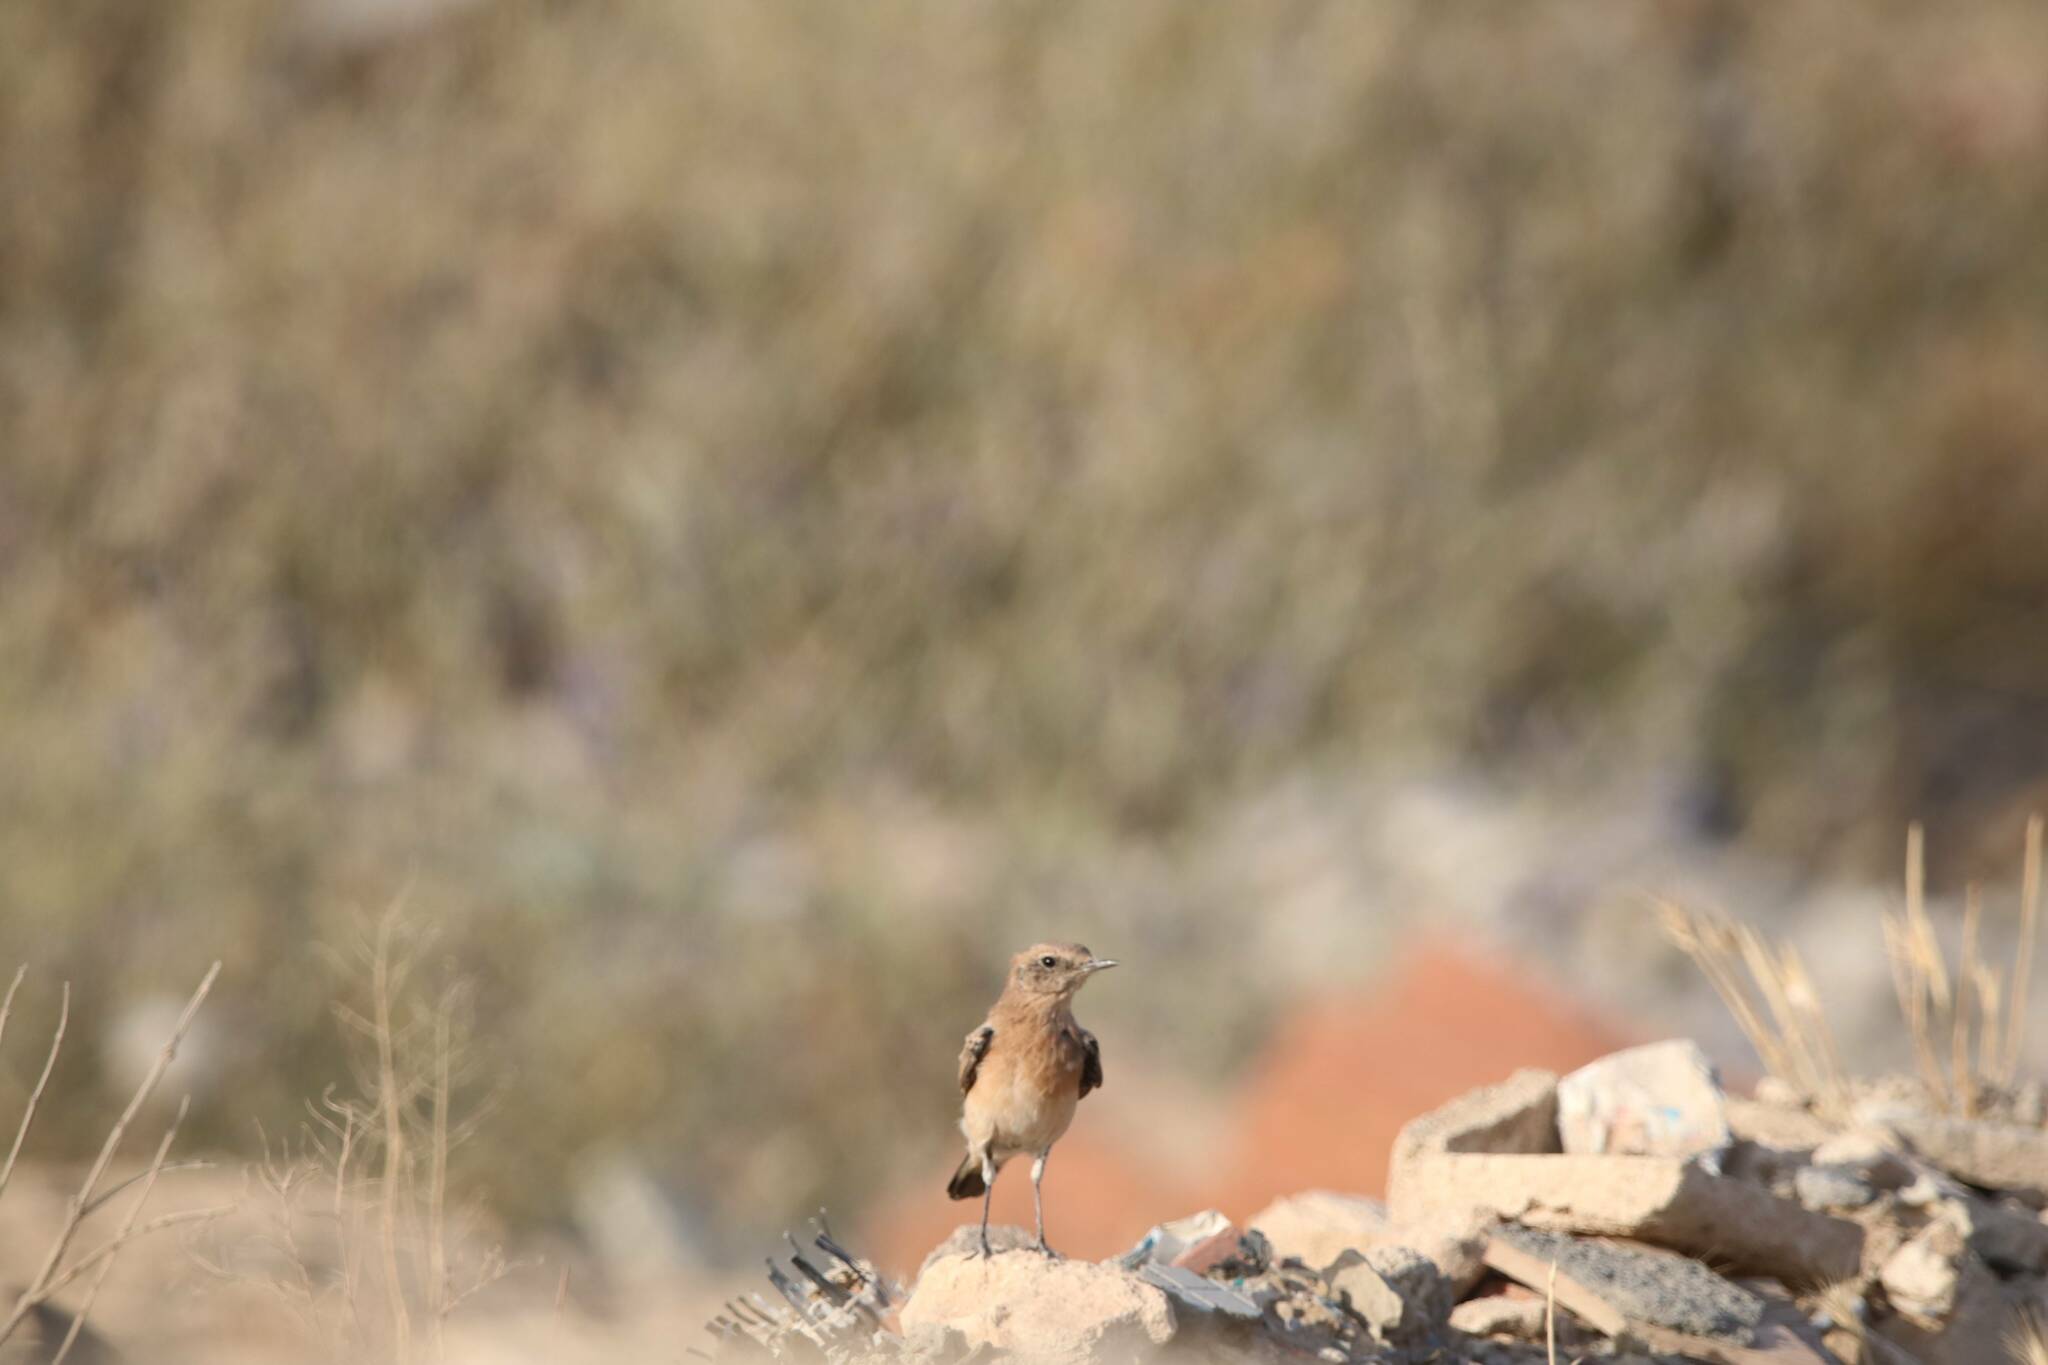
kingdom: Animalia
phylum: Chordata
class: Aves
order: Passeriformes
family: Muscicapidae
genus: Oenanthe
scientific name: Oenanthe hispanica
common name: Black-eared wheatear
